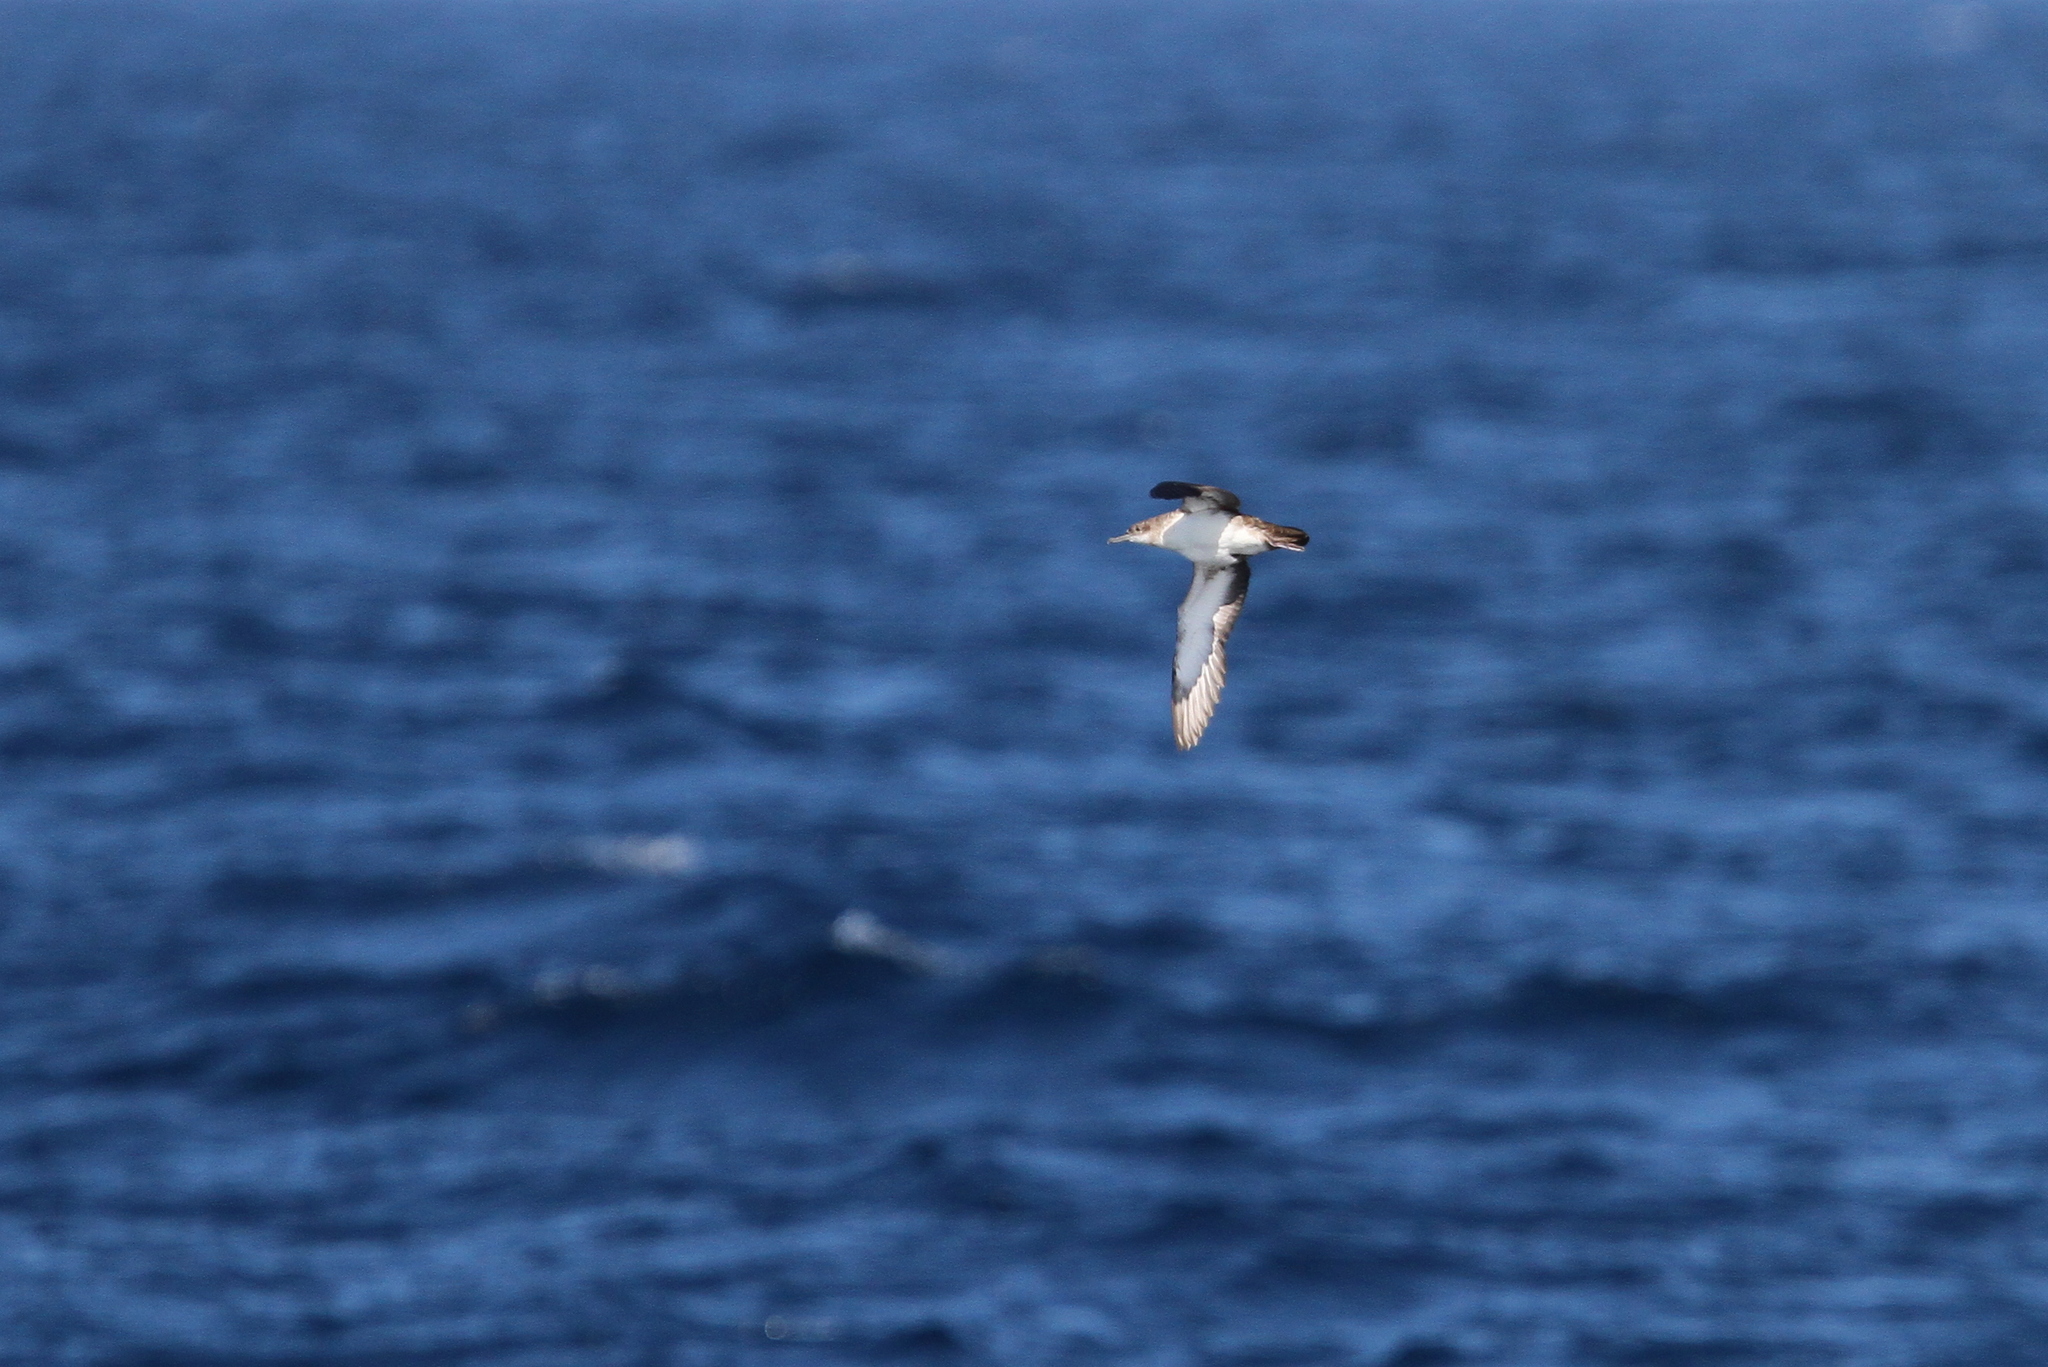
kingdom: Animalia
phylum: Chordata
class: Aves
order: Procellariiformes
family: Procellariidae
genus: Puffinus
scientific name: Puffinus opisthomelas
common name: Black-vented shearwater
